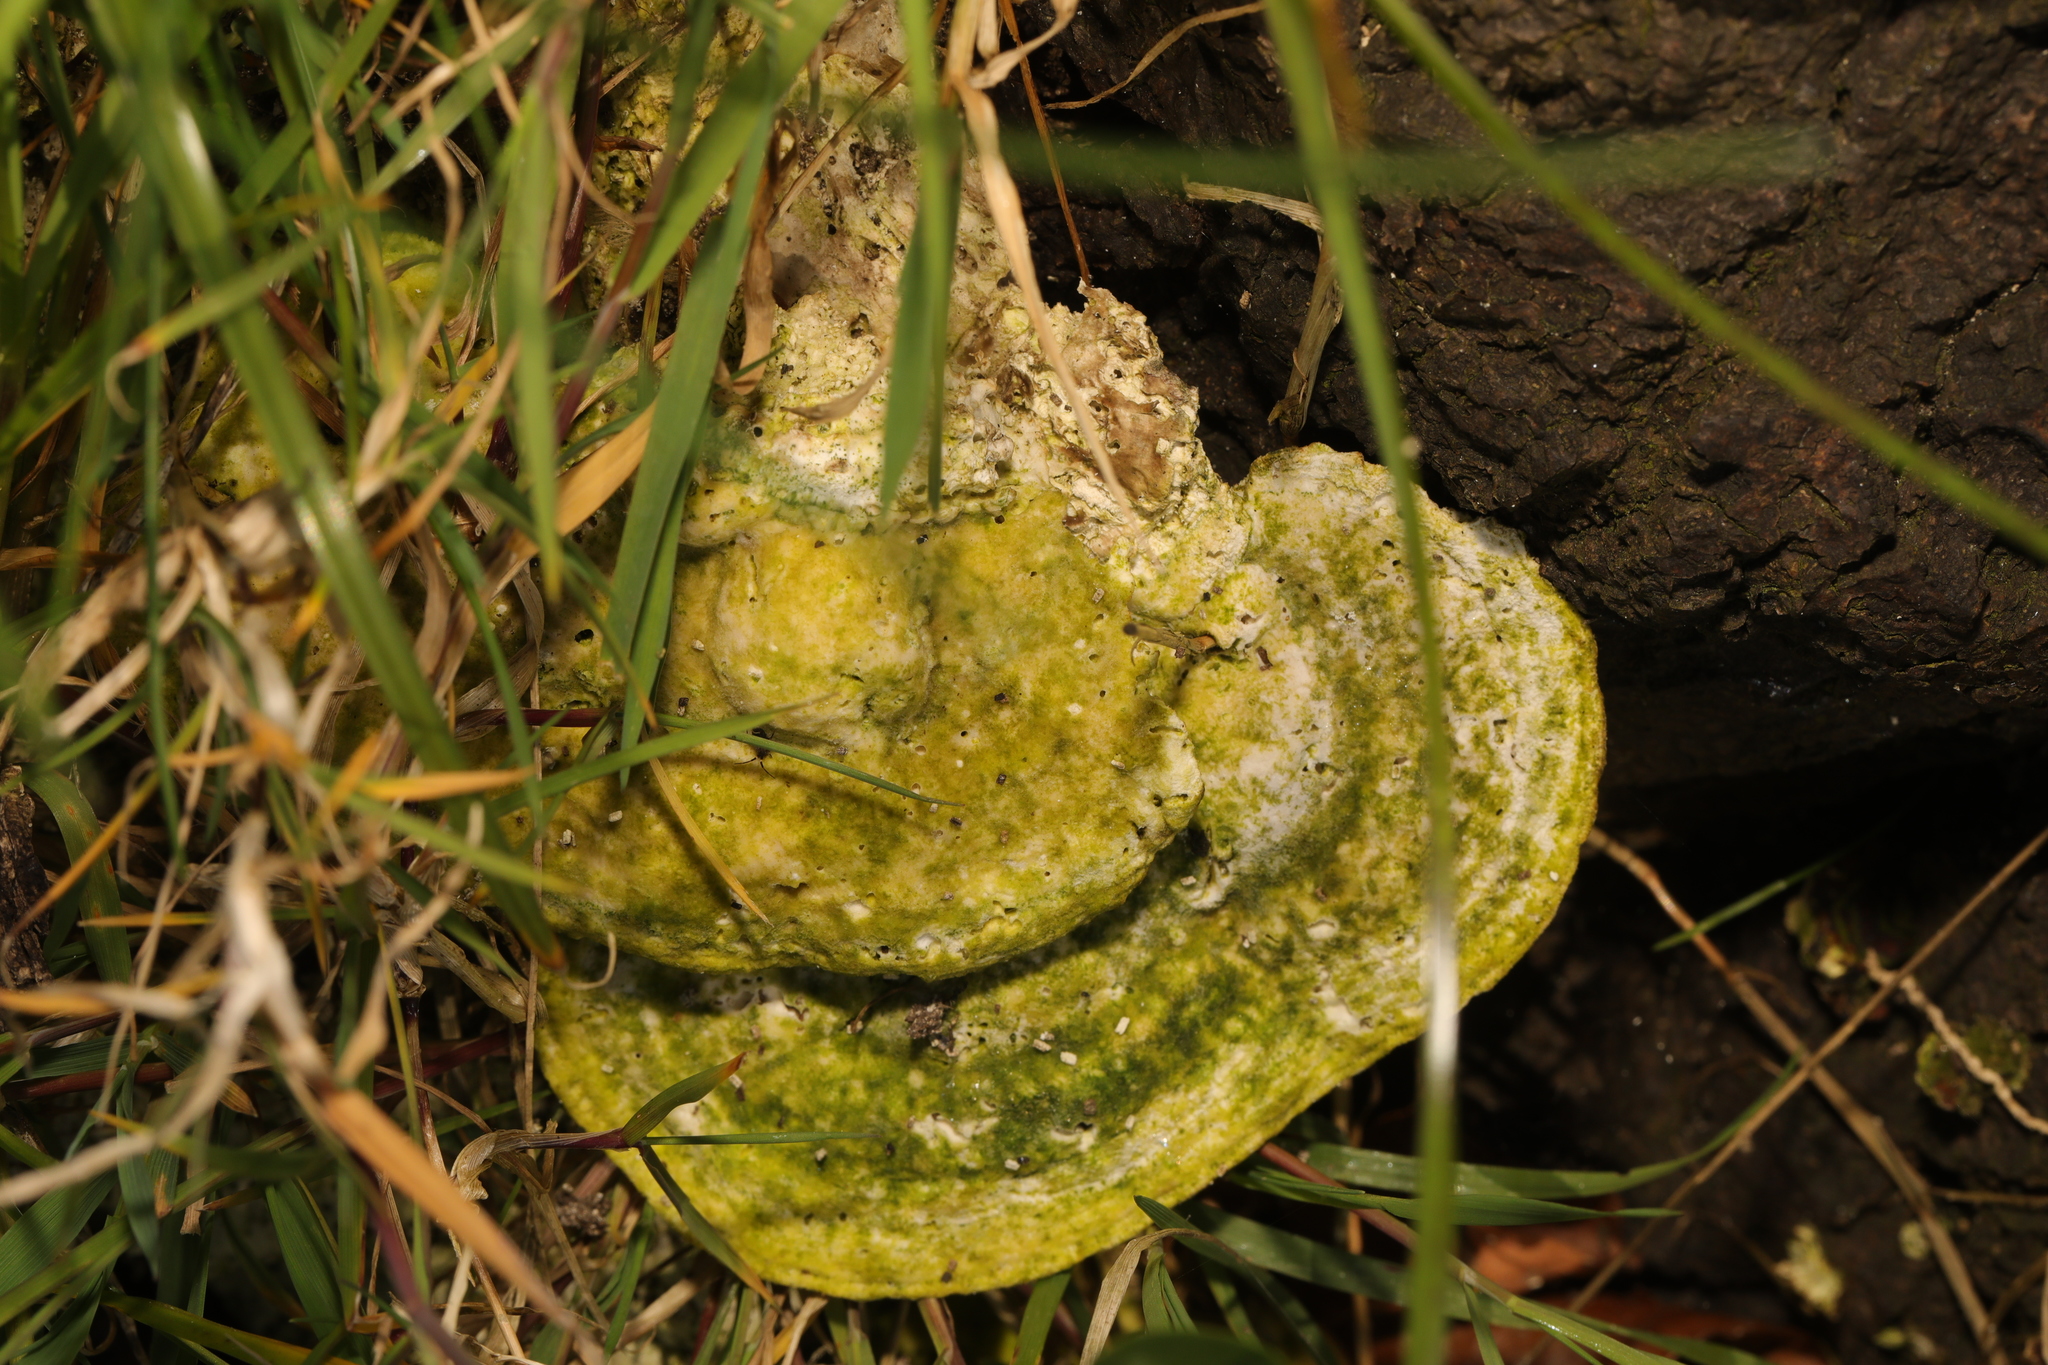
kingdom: Fungi
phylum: Basidiomycota
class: Agaricomycetes
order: Polyporales
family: Polyporaceae
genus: Trametes
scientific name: Trametes gibbosa
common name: Lumpy bracket
